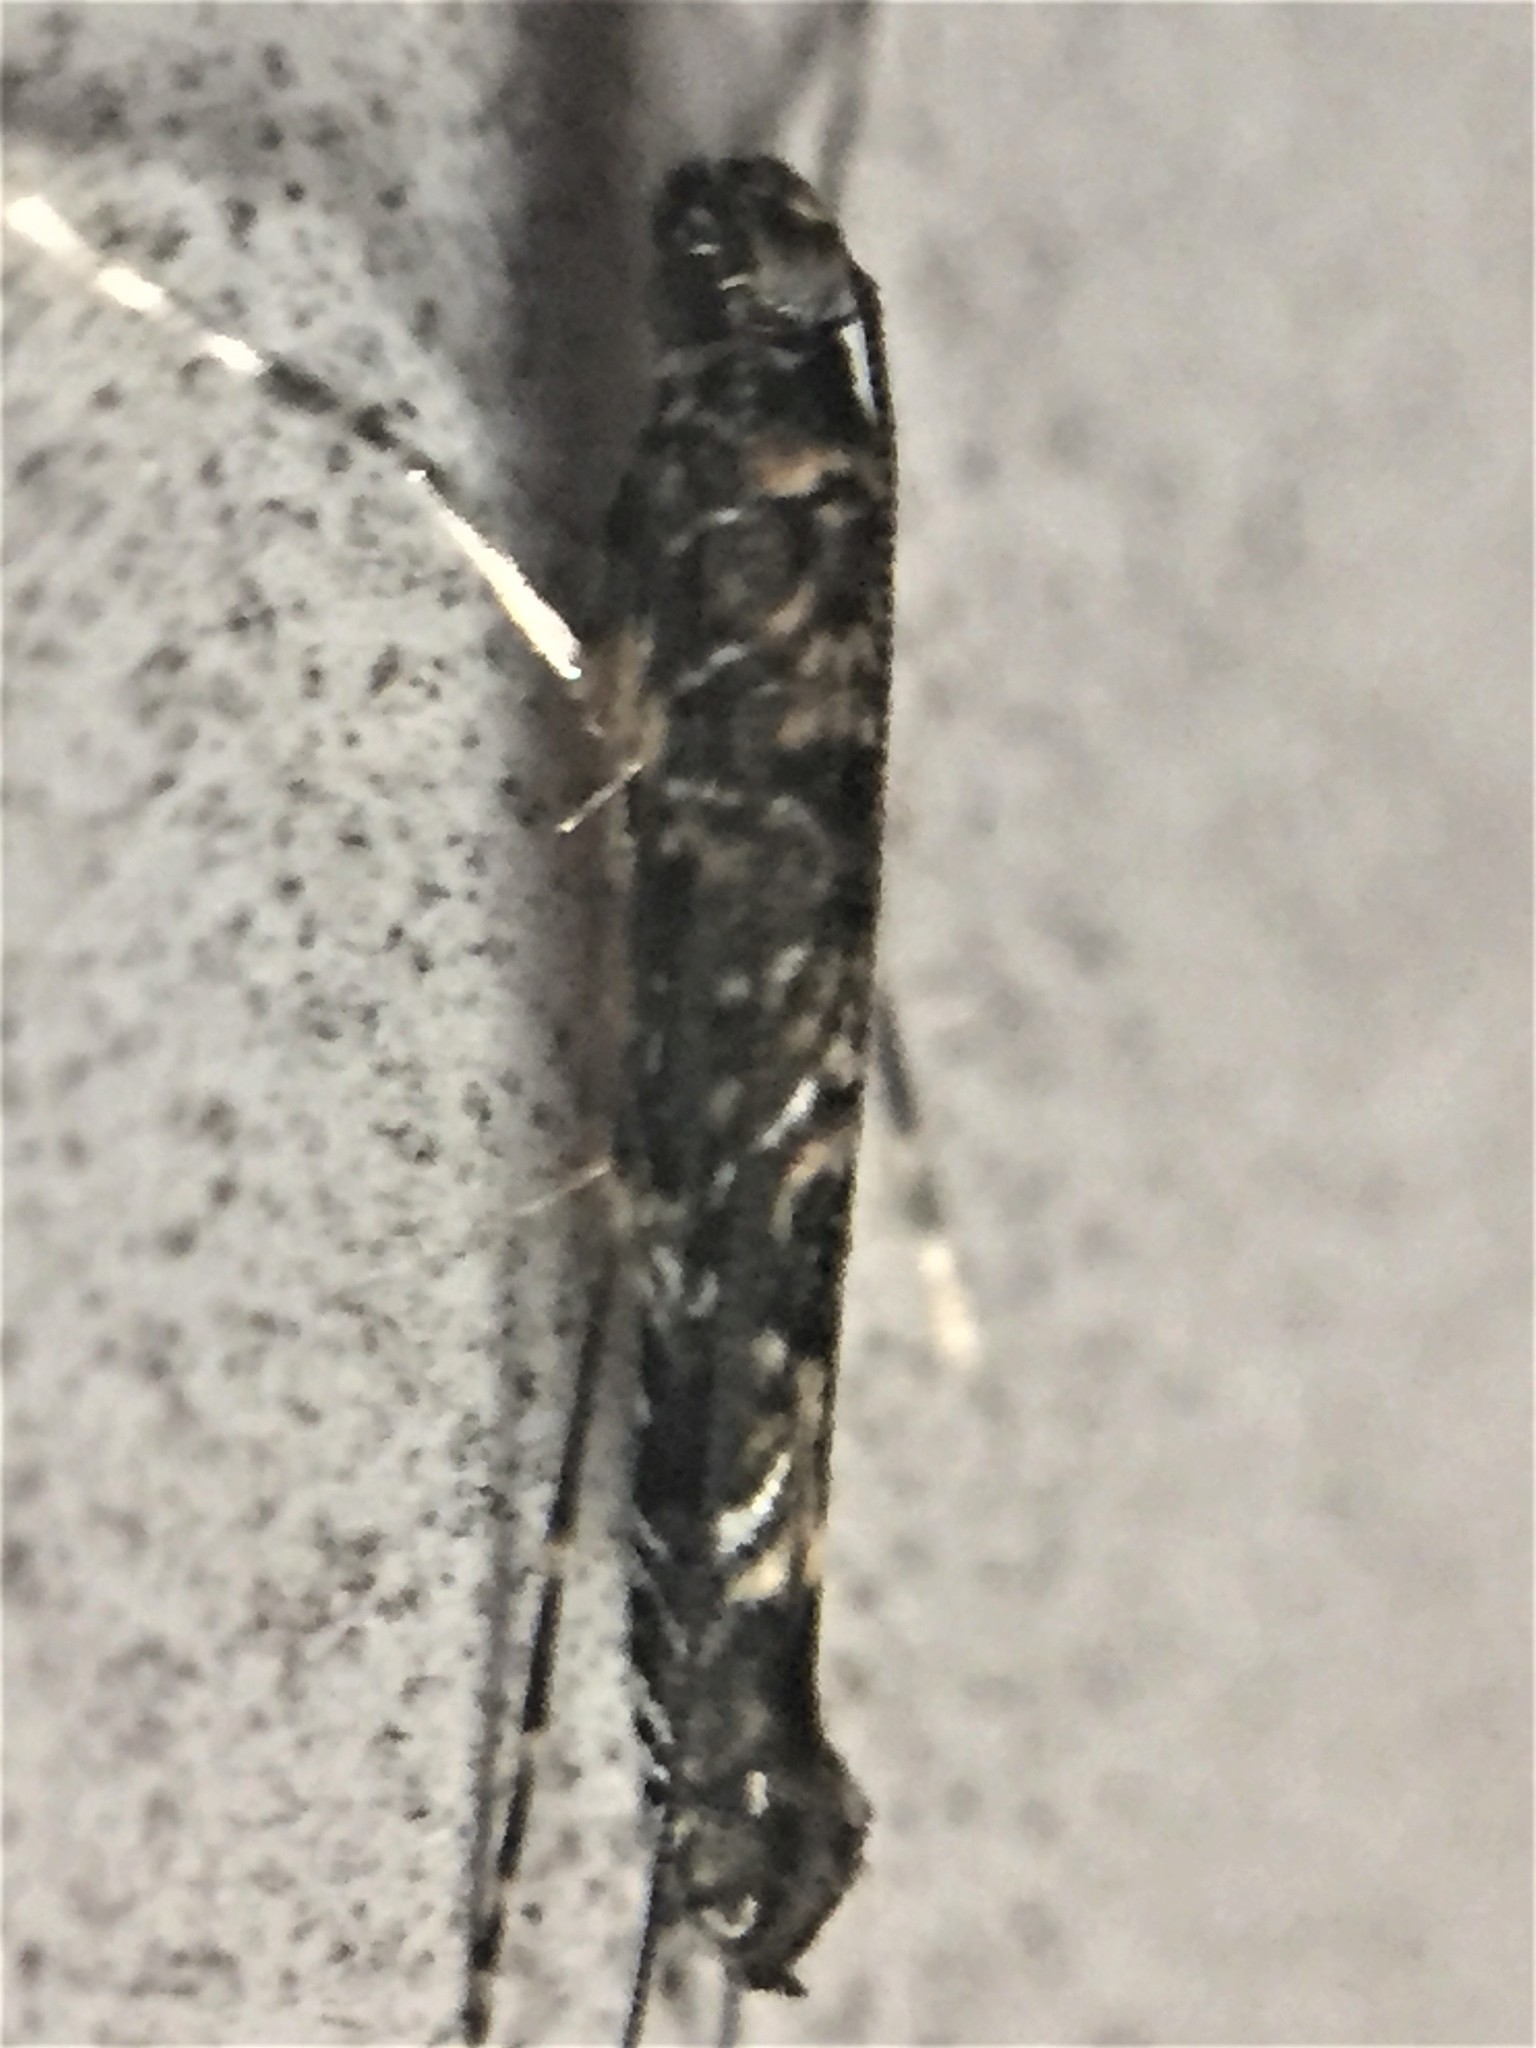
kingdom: Animalia
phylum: Arthropoda
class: Insecta
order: Lepidoptera
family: Gracillariidae
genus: Conopomorpha
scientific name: Conopomorpha cyanospila
